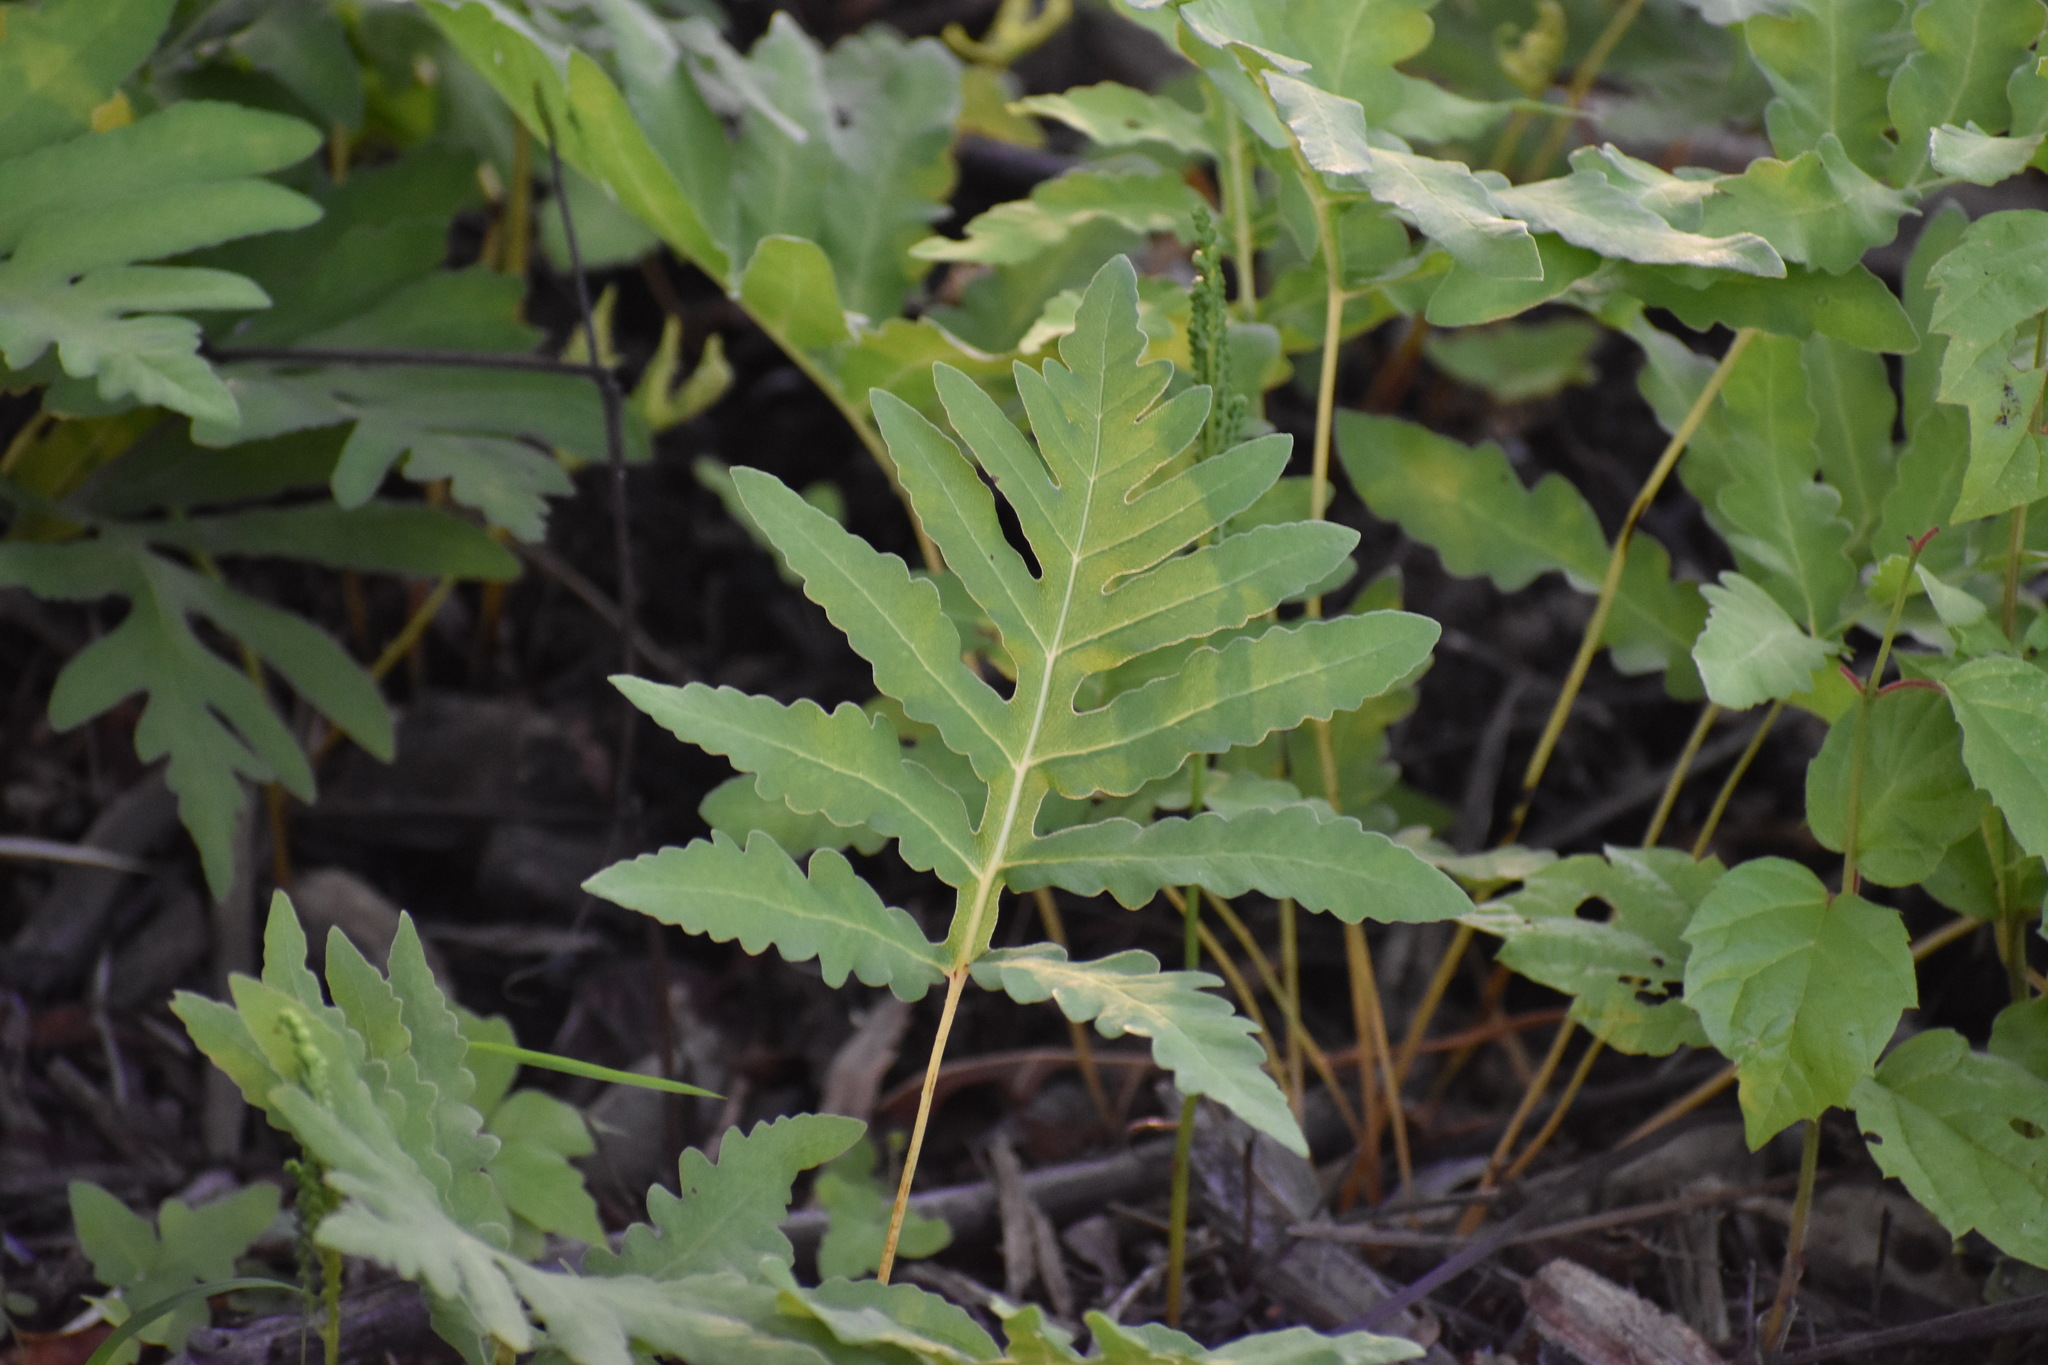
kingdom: Plantae
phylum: Tracheophyta
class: Polypodiopsida
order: Polypodiales
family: Onocleaceae
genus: Onoclea
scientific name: Onoclea sensibilis
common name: Sensitive fern
